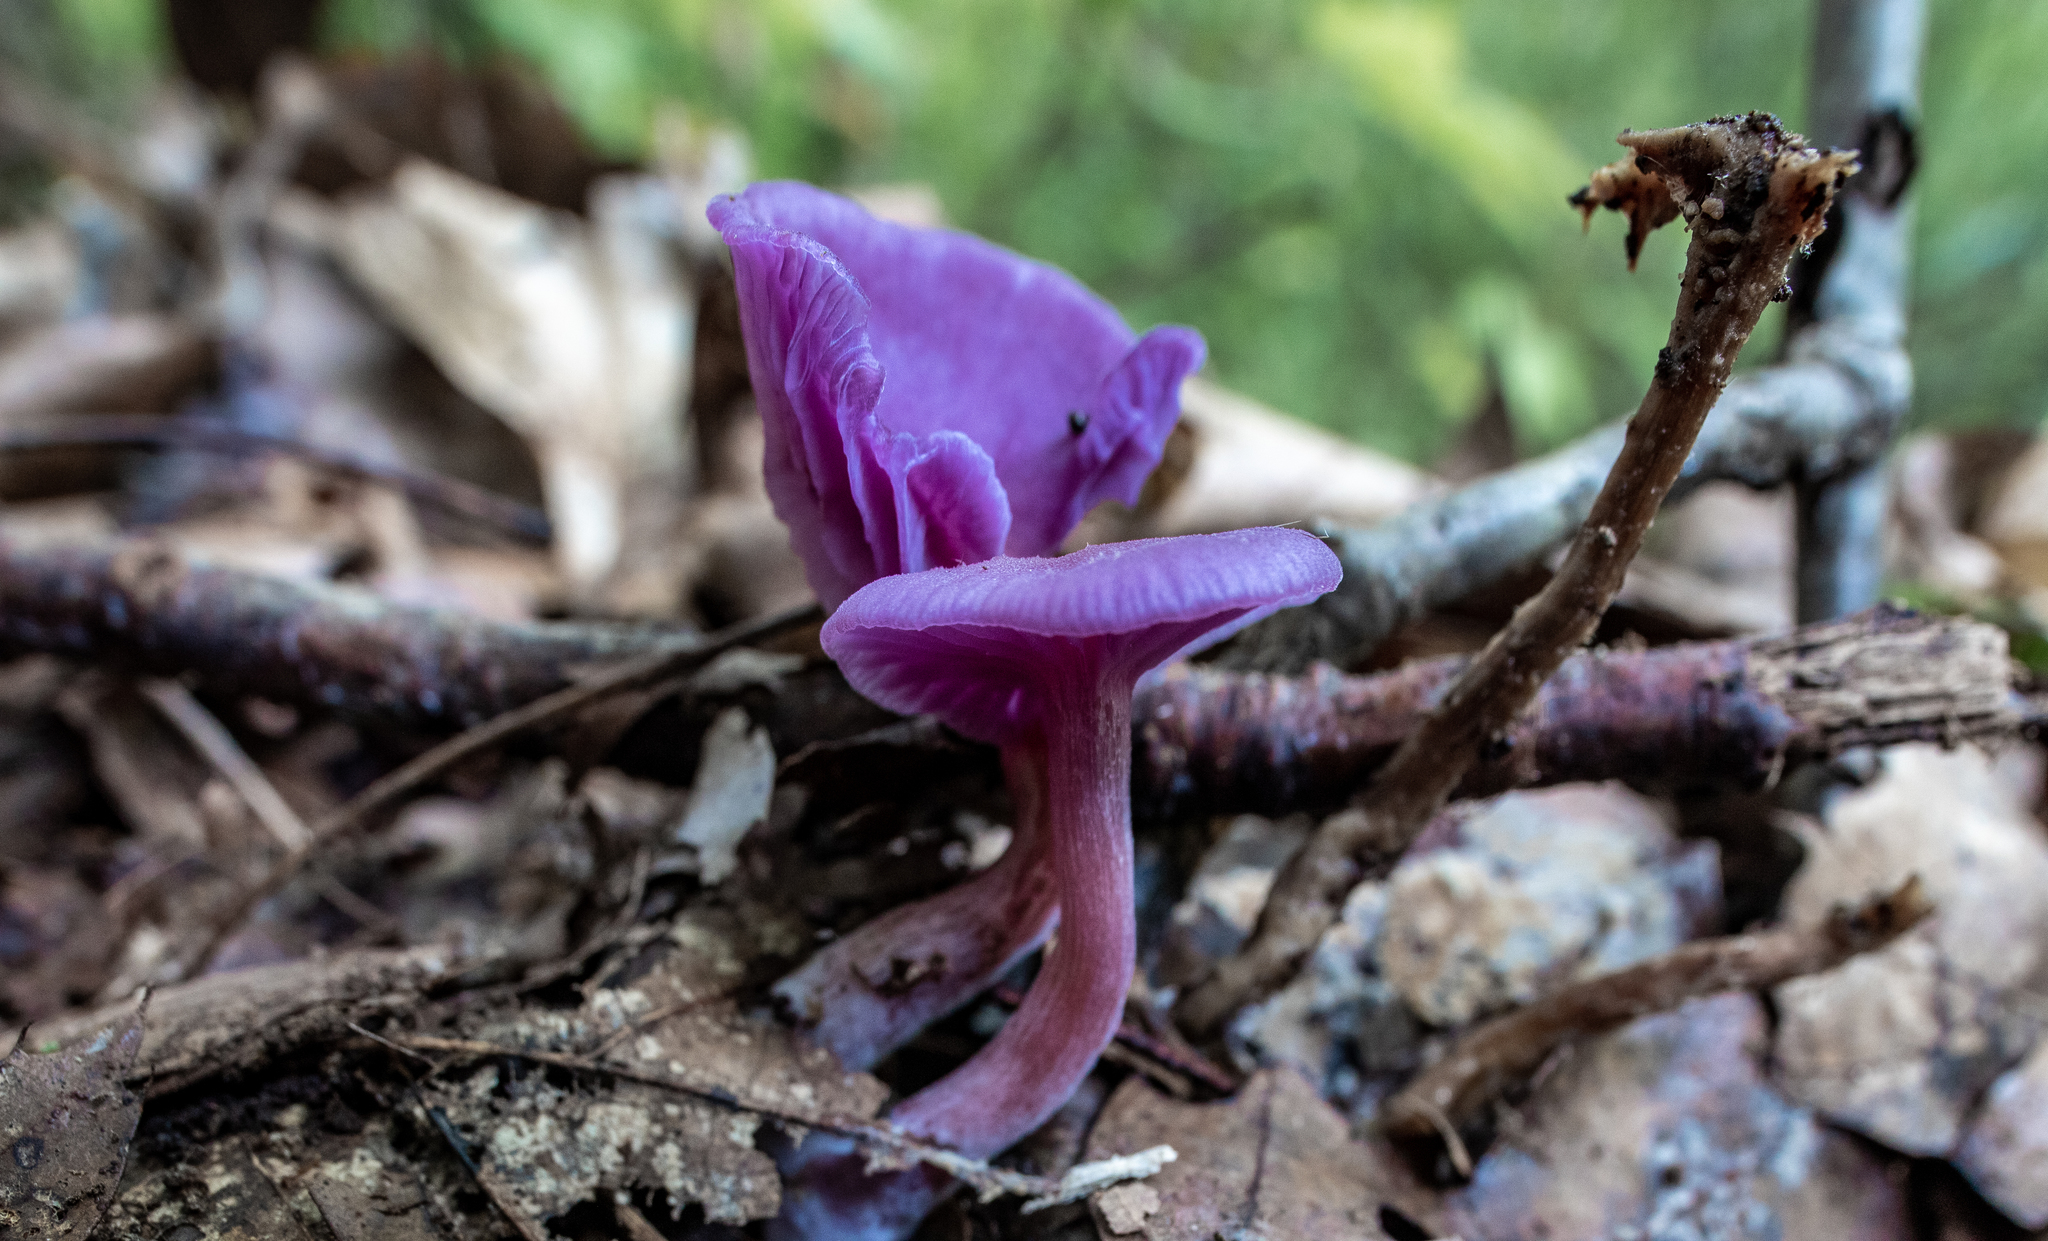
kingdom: Fungi
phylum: Basidiomycota
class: Agaricomycetes
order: Agaricales
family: Hydnangiaceae
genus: Laccaria
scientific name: Laccaria amethystina
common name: Amethyst deceiver
